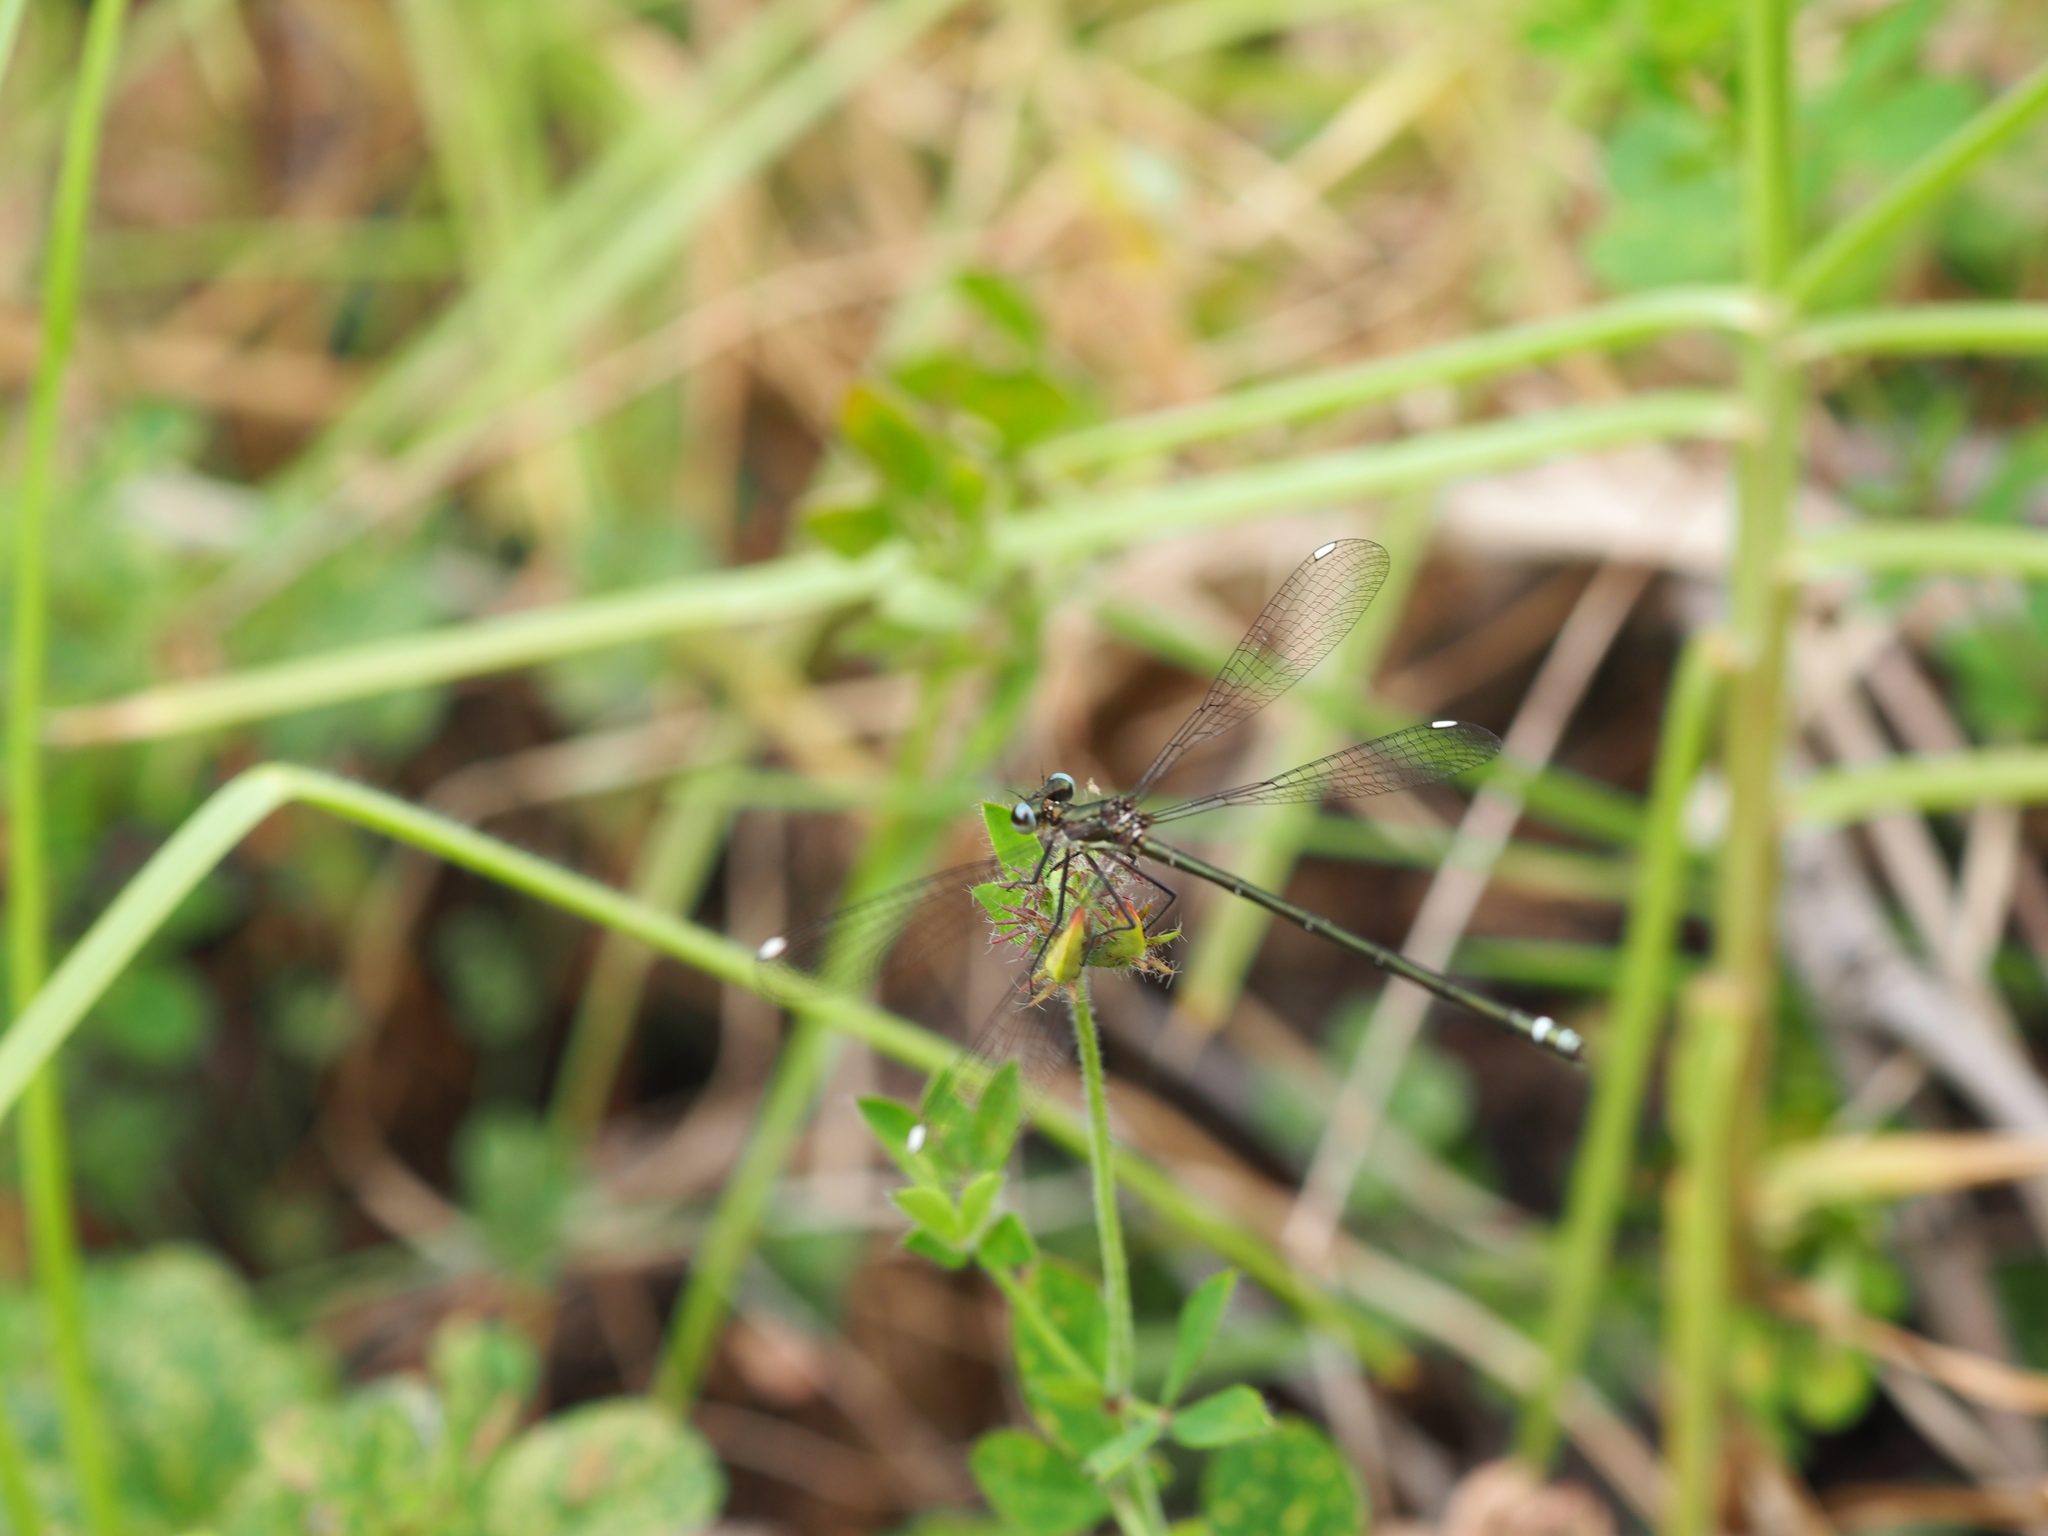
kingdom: Animalia
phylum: Arthropoda
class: Insecta
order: Odonata
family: Argiolestidae
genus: Miniargiolestes
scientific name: Miniargiolestes minimus
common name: Stream flatwing
